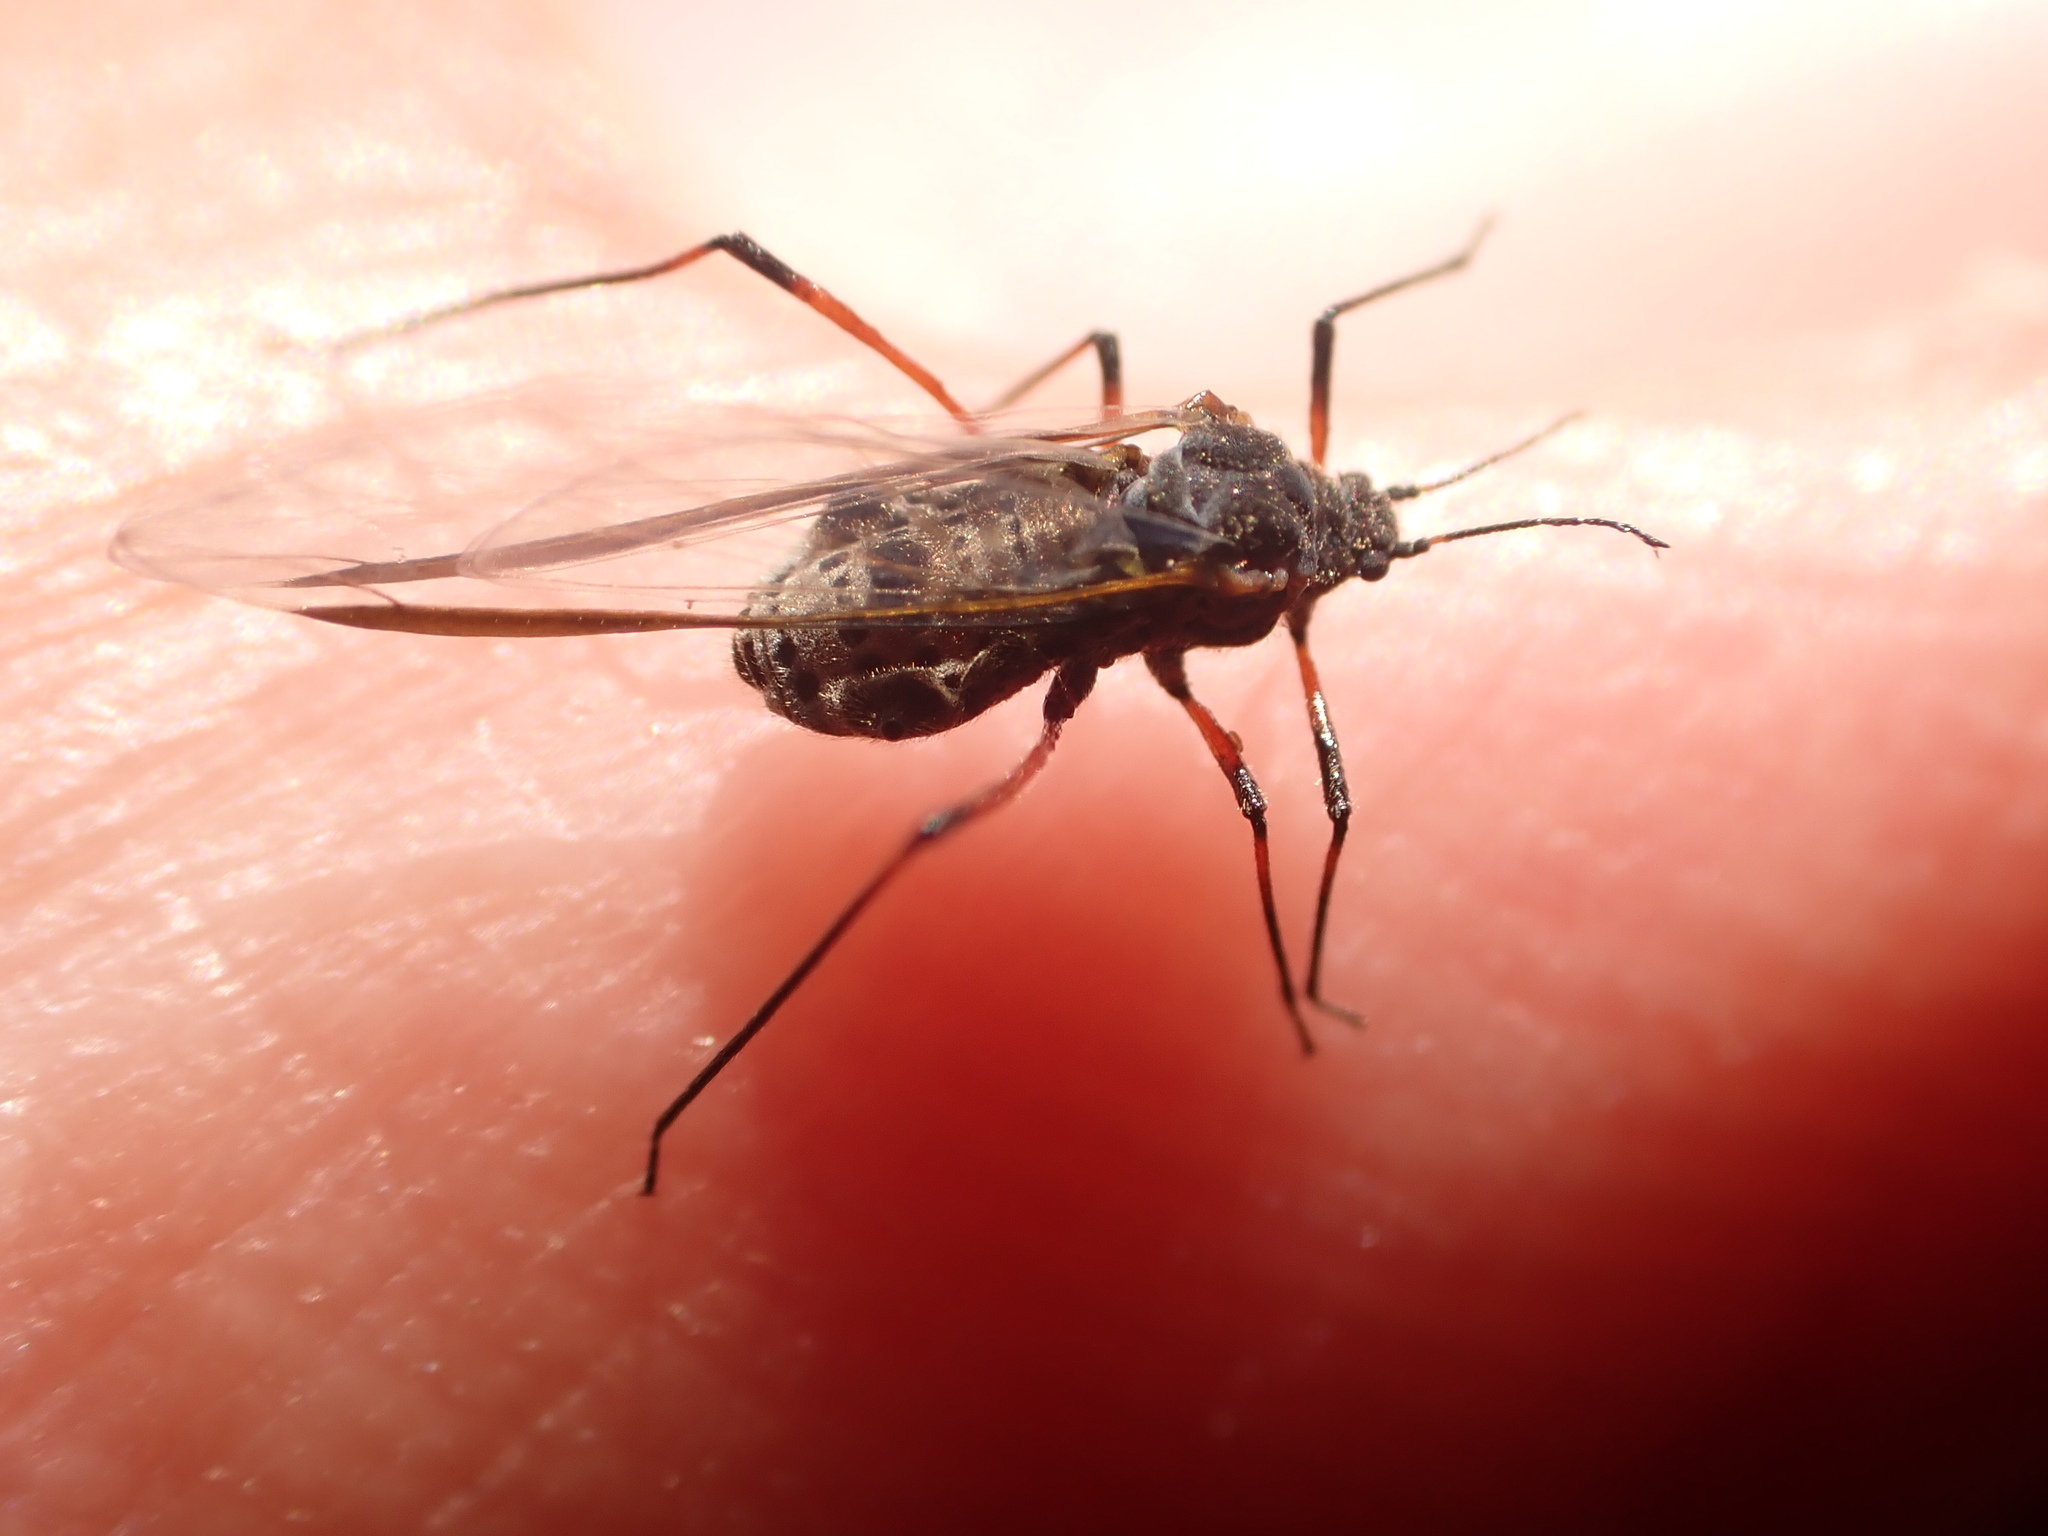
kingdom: Animalia
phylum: Arthropoda
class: Insecta
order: Hemiptera
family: Aphididae
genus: Tuberolachnus
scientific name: Tuberolachnus salignus
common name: Giant willow aphid
